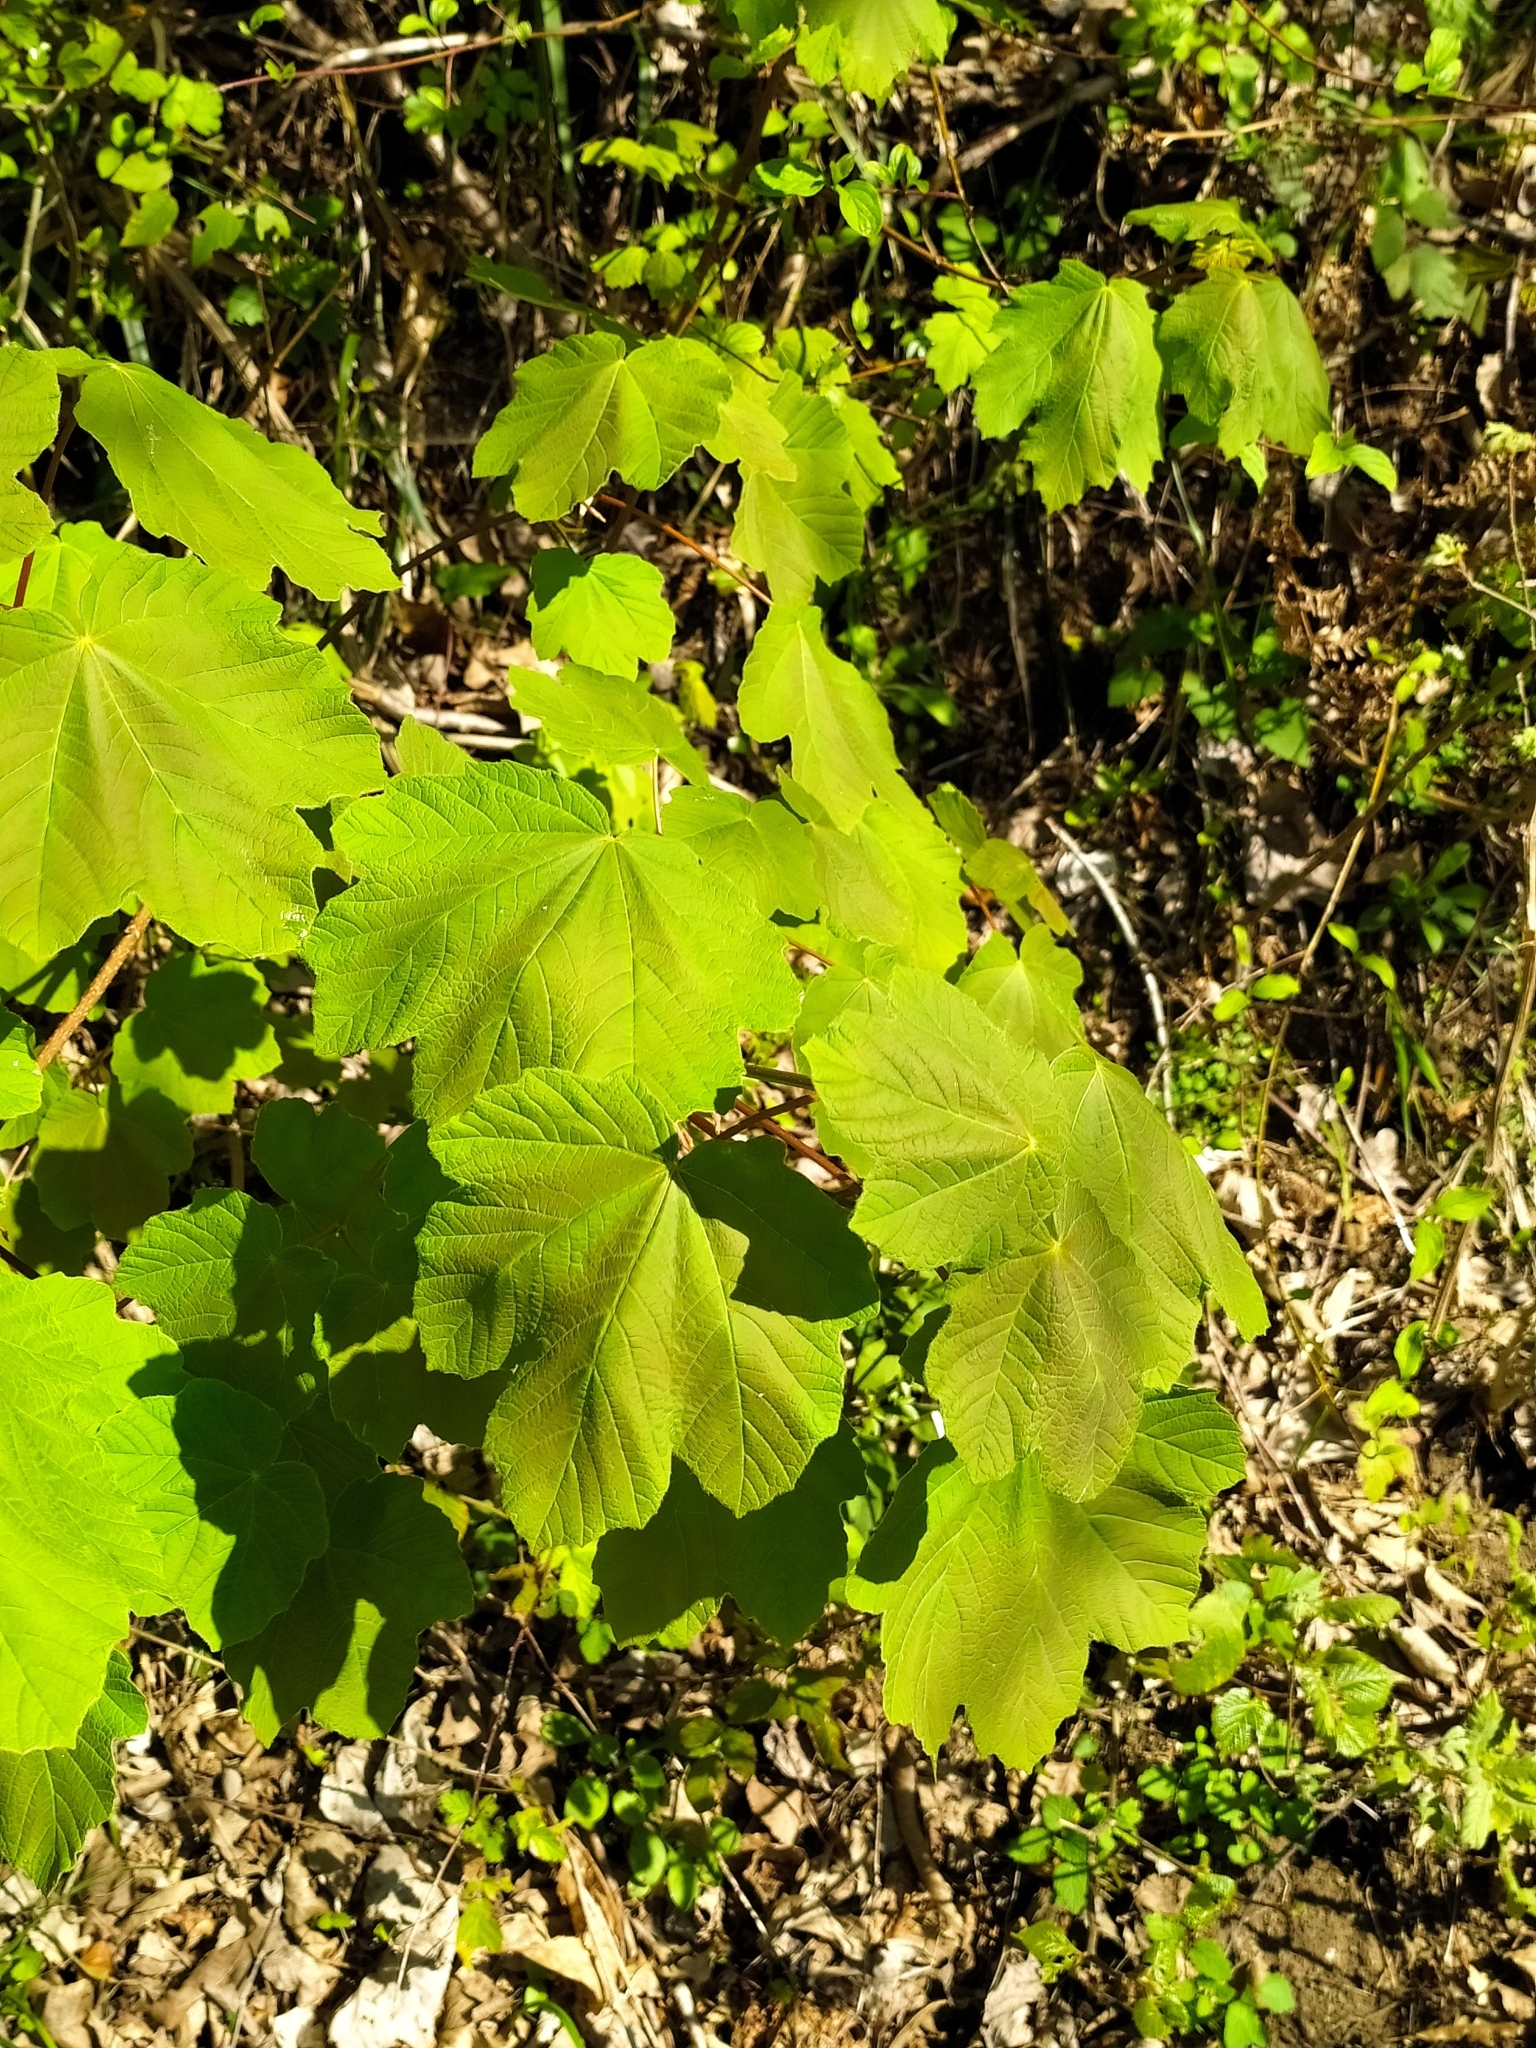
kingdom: Plantae
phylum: Tracheophyta
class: Magnoliopsida
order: Sapindales
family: Sapindaceae
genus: Acer
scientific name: Acer obtusatum
